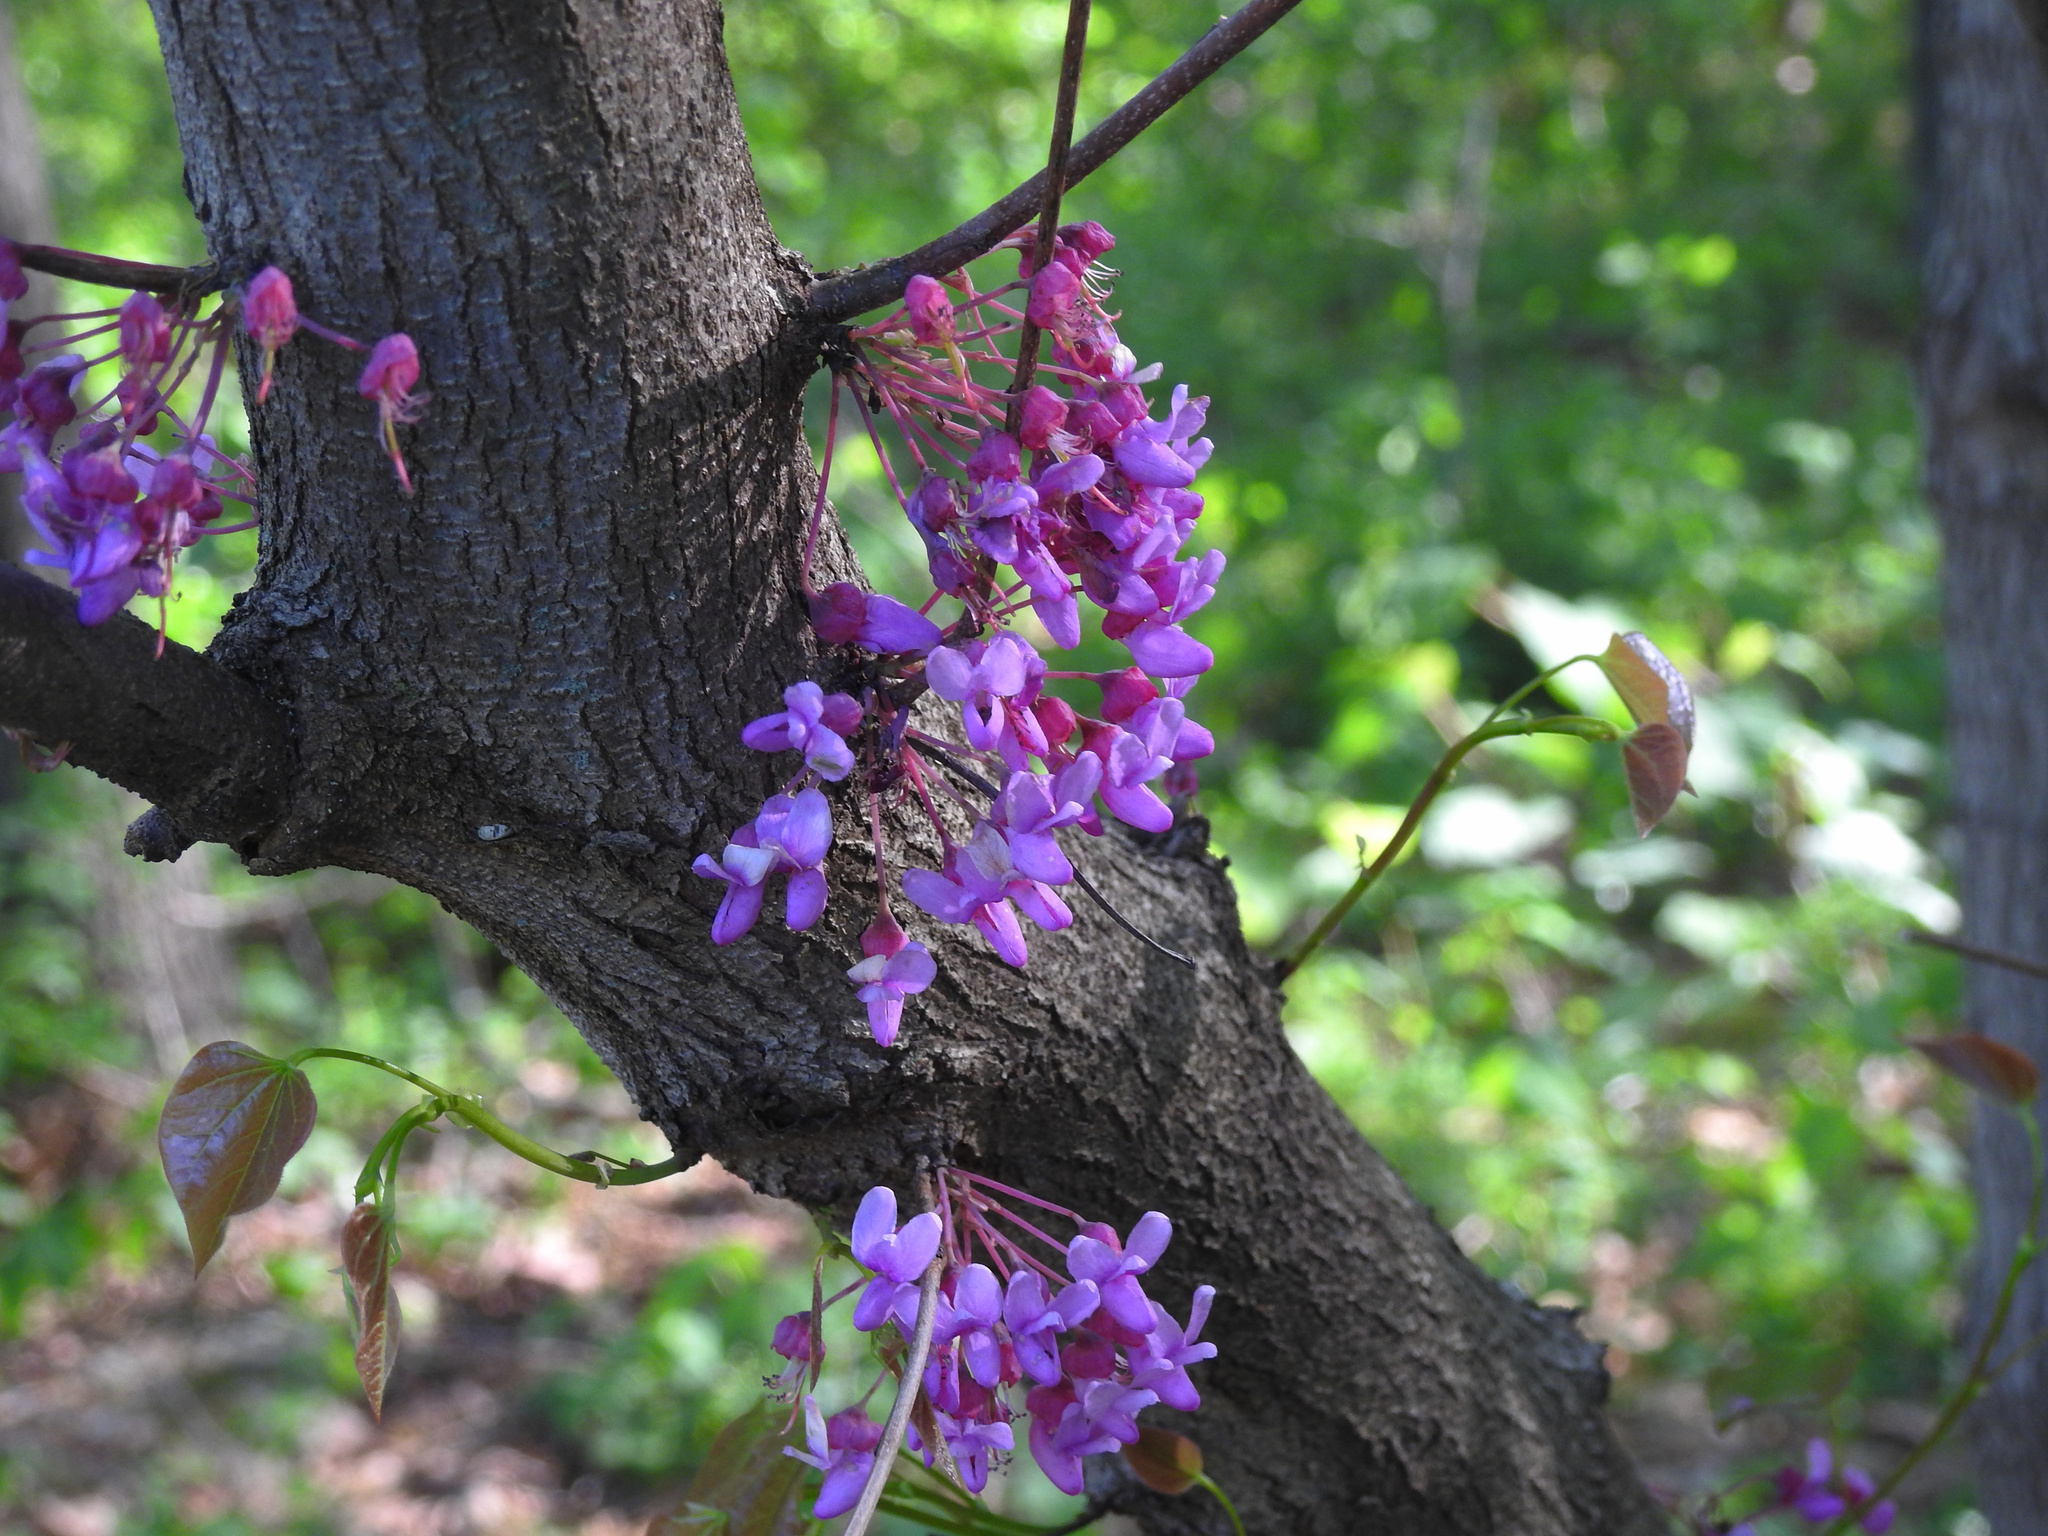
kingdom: Plantae
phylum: Tracheophyta
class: Magnoliopsida
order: Fabales
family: Fabaceae
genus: Cercis
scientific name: Cercis canadensis
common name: Eastern redbud
